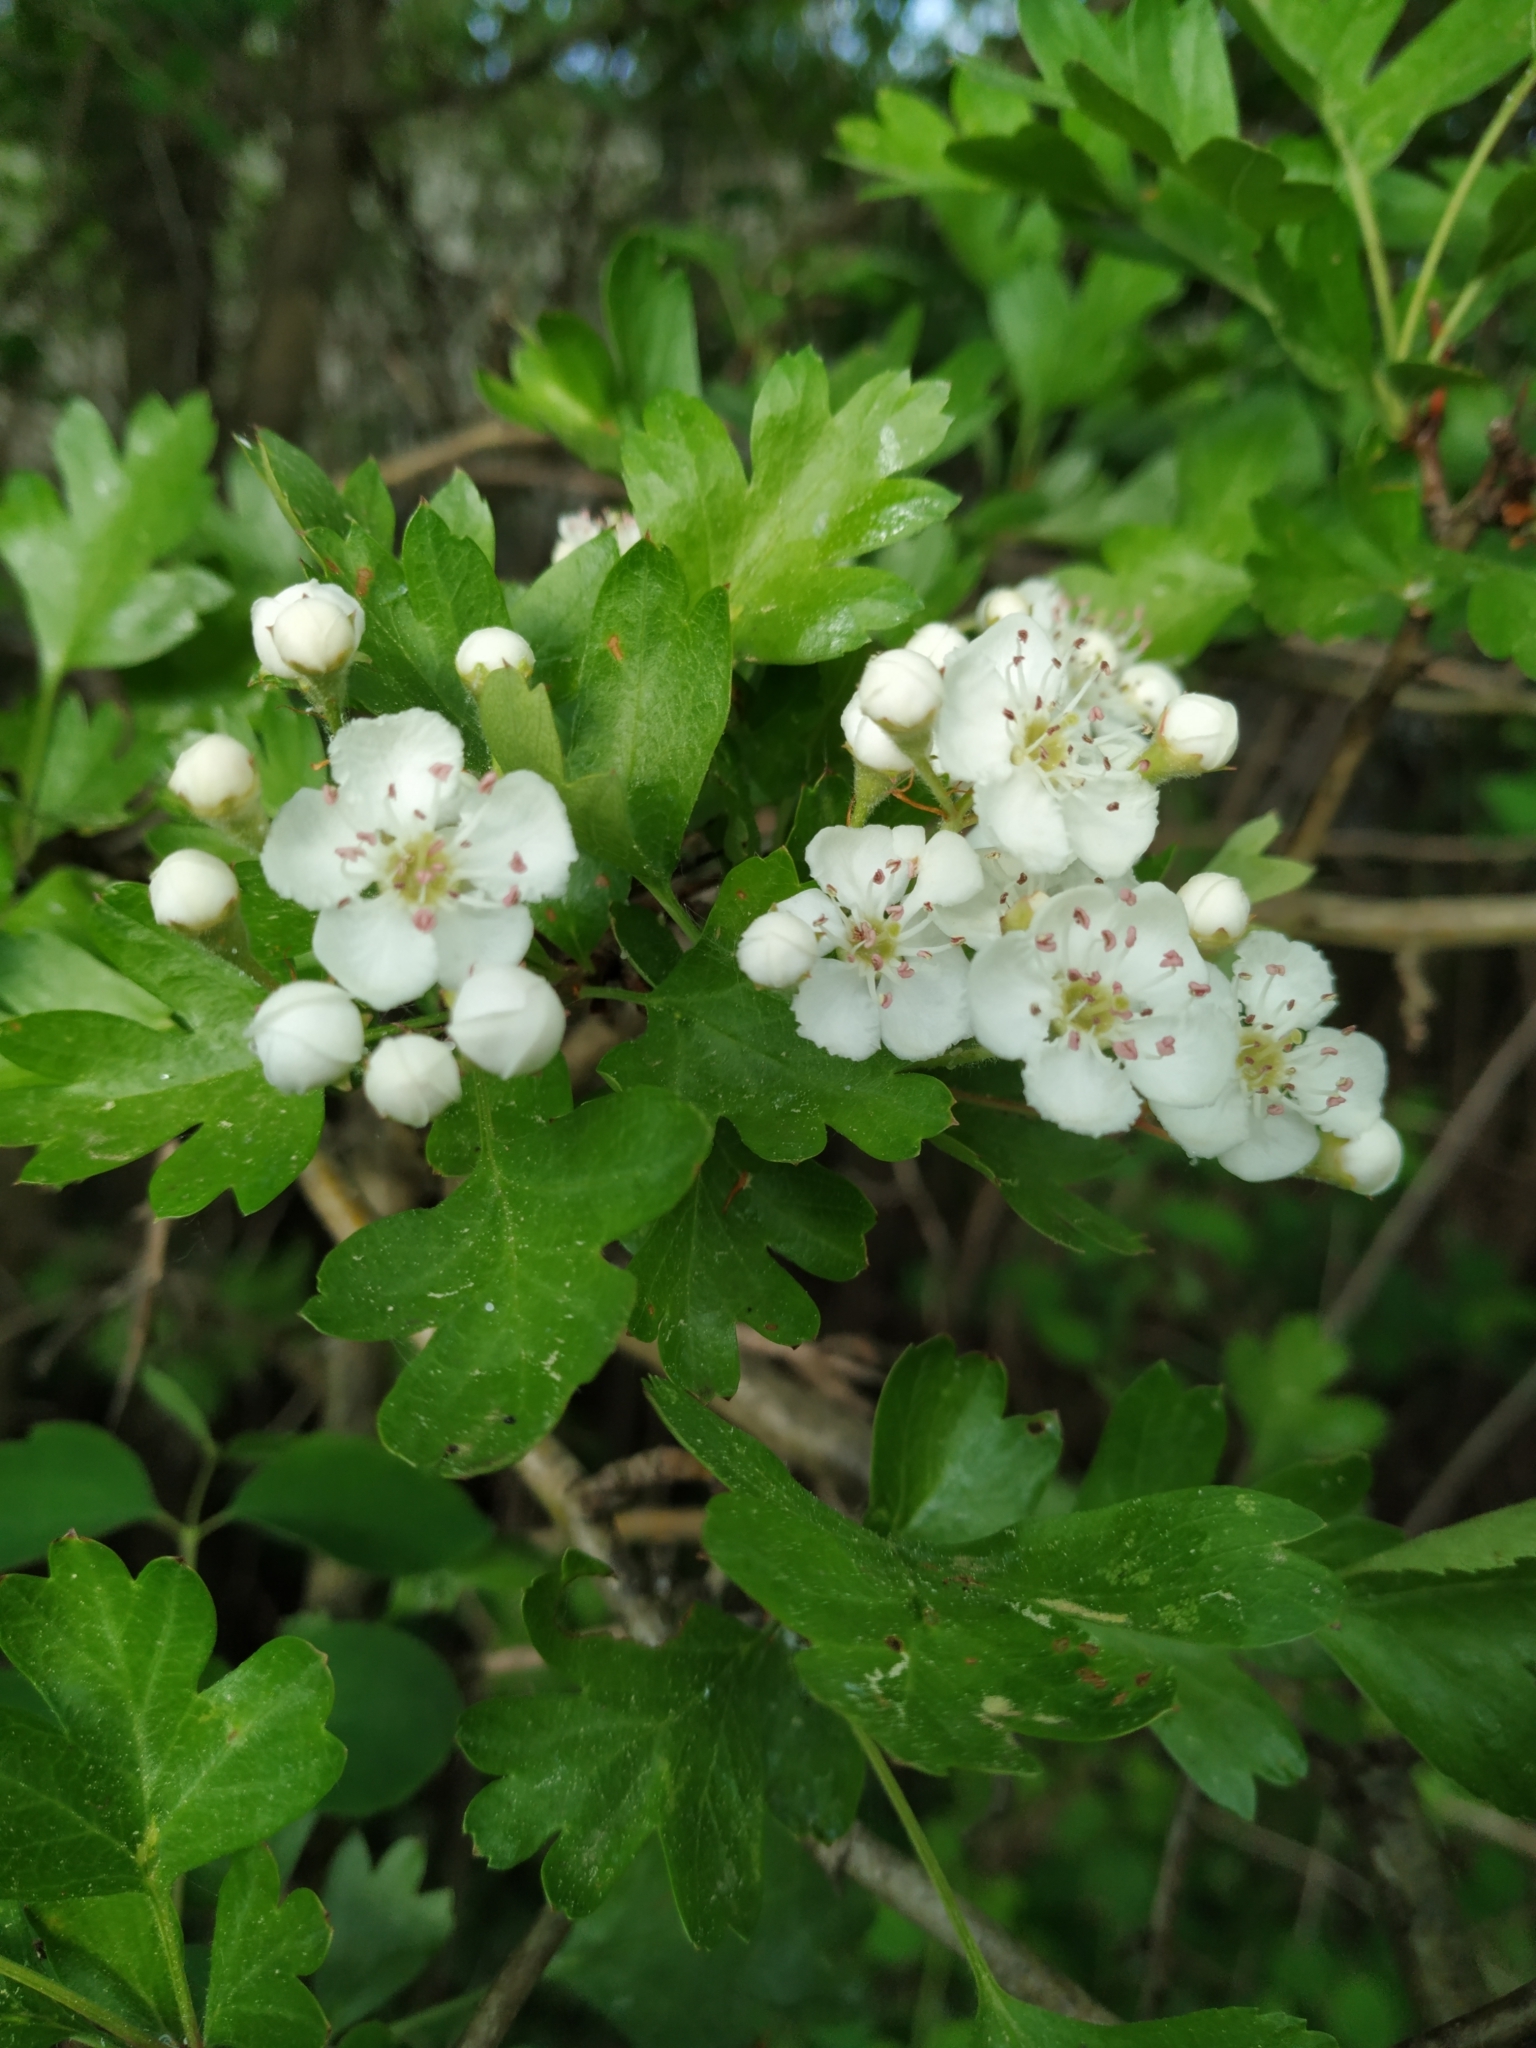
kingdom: Plantae
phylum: Tracheophyta
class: Magnoliopsida
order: Rosales
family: Rosaceae
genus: Crataegus
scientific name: Crataegus monogyna
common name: Hawthorn
